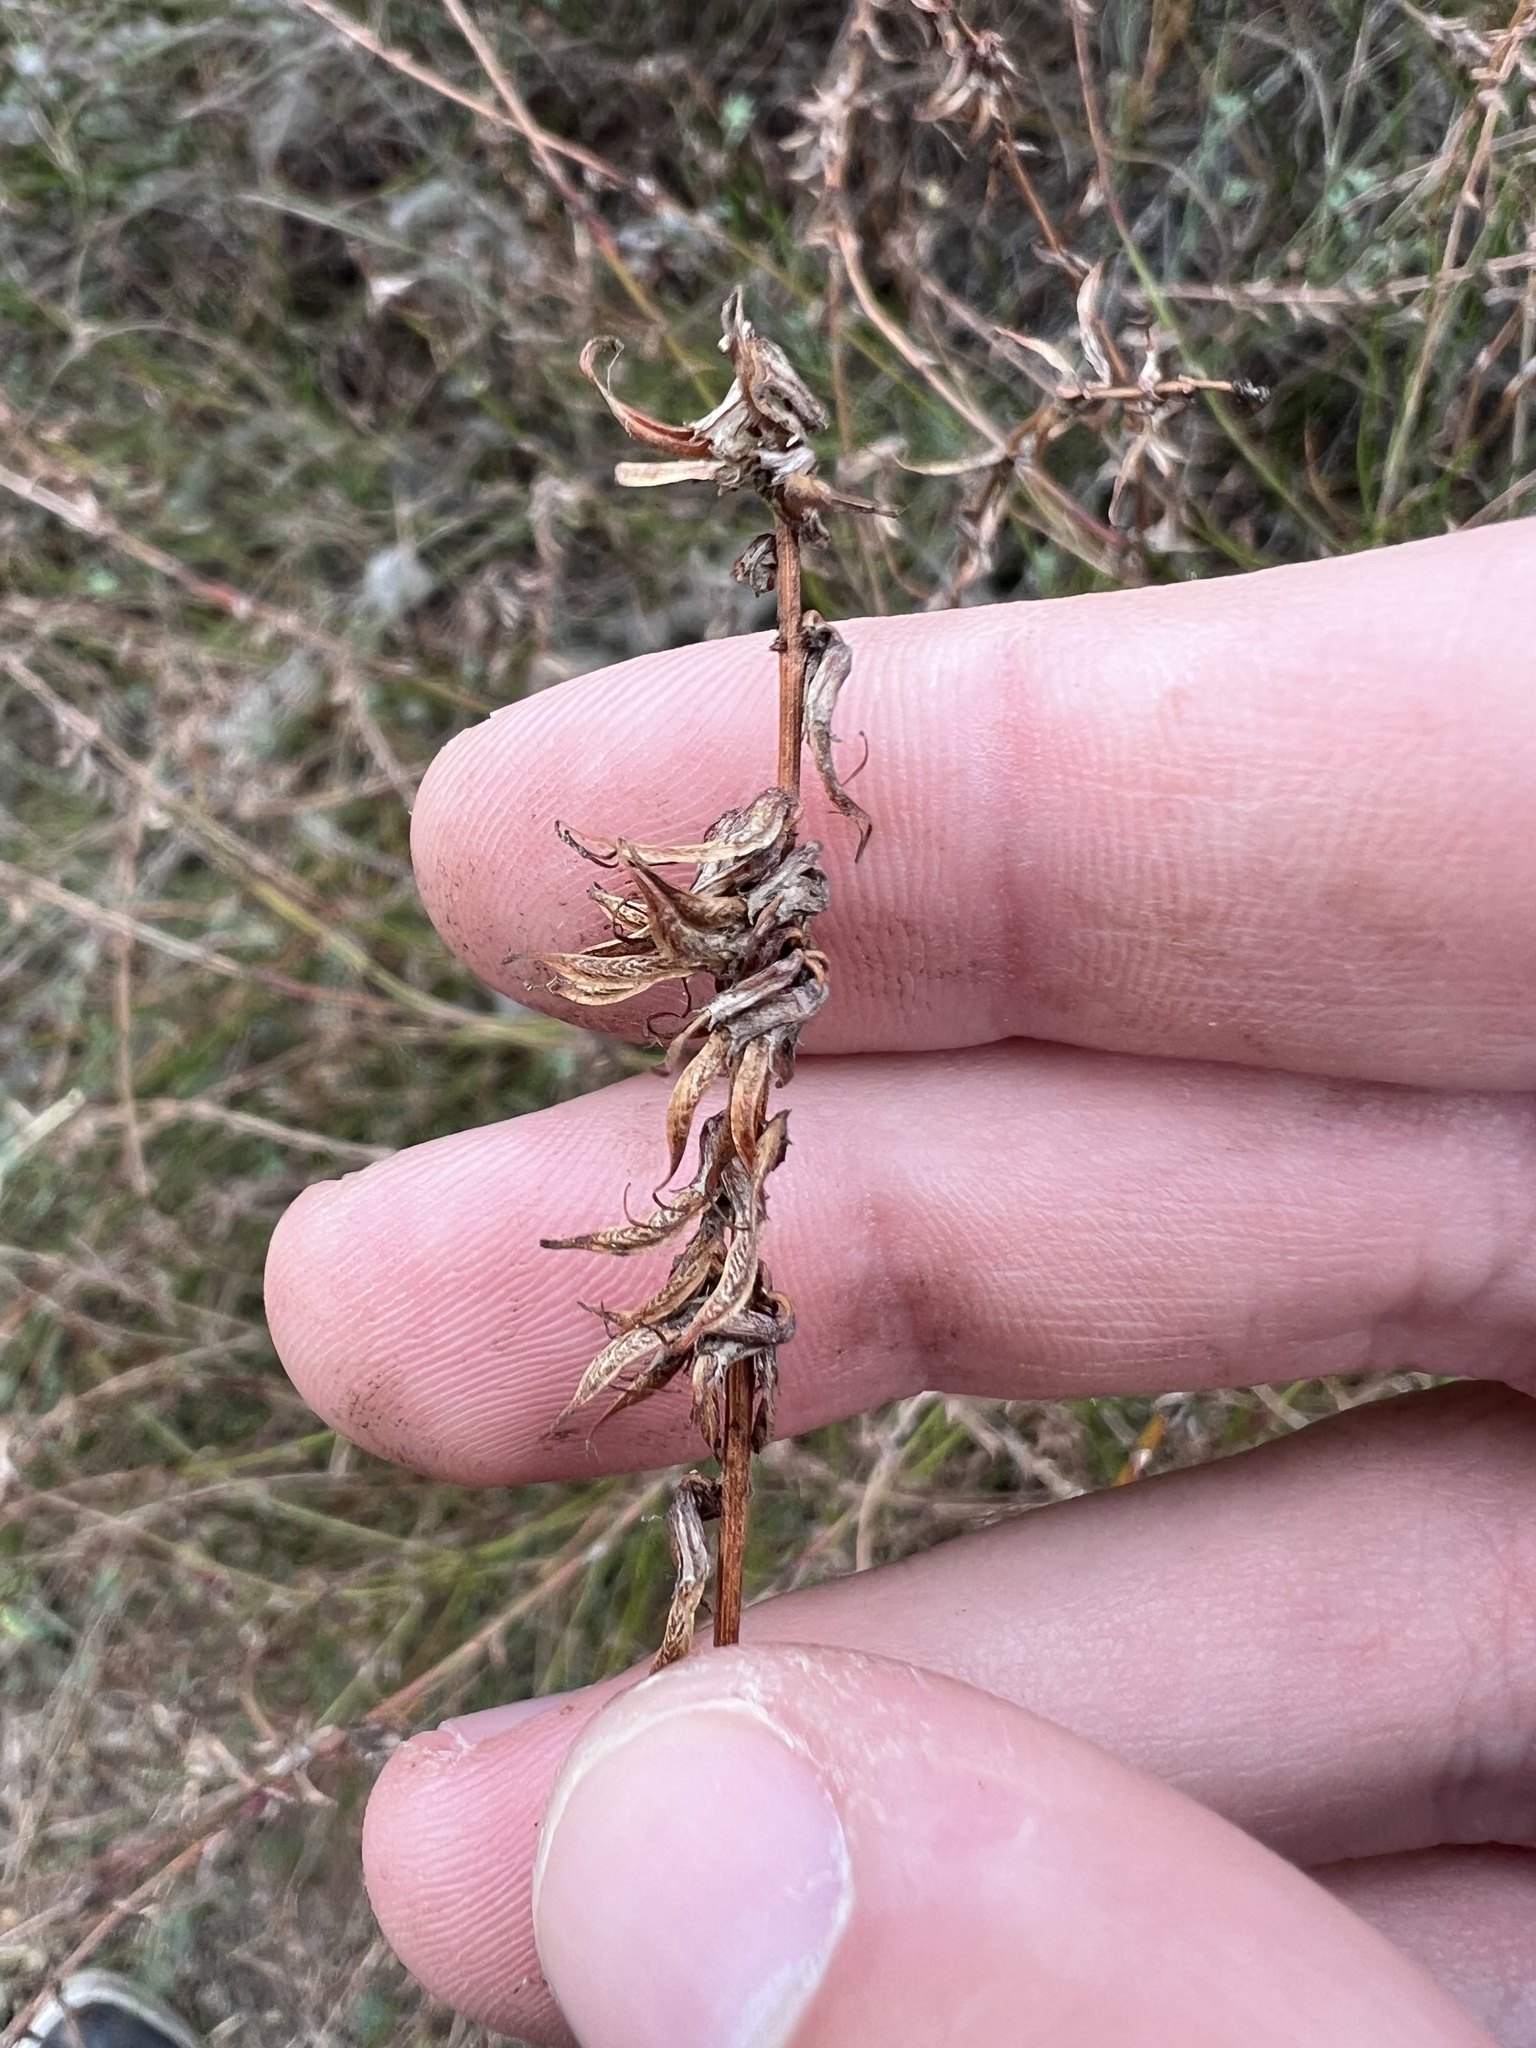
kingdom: Plantae
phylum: Tracheophyta
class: Magnoliopsida
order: Fabales
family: Fabaceae
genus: Acmispon
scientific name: Acmispon glaber
